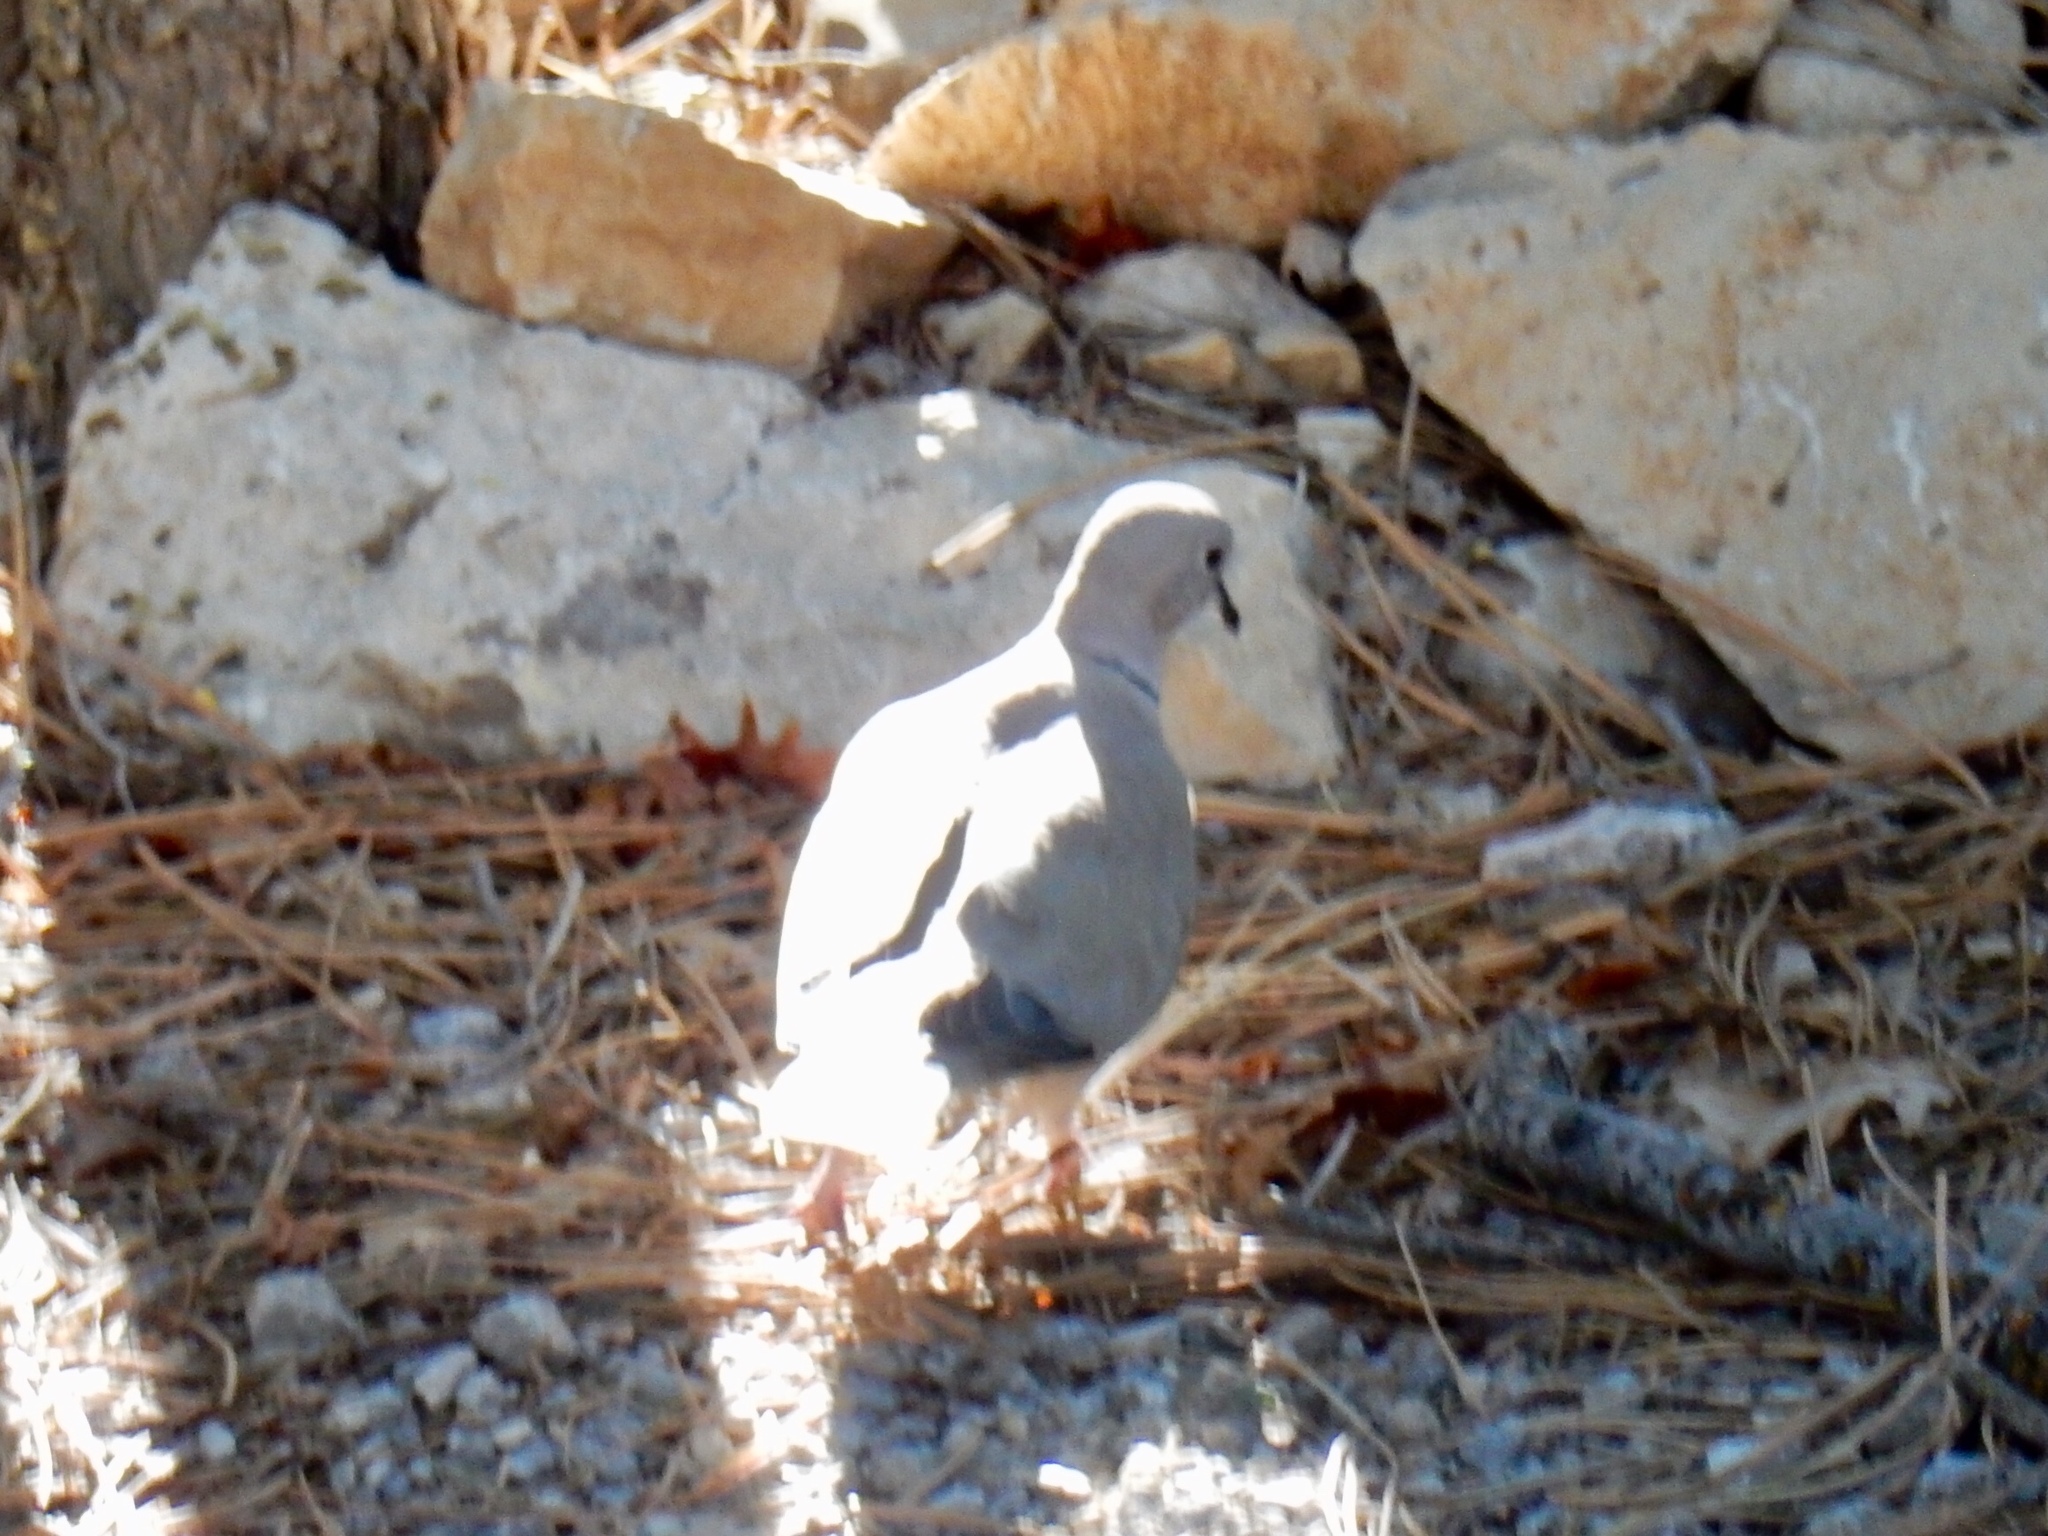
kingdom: Animalia
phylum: Chordata
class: Aves
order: Columbiformes
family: Columbidae
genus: Streptopelia
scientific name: Streptopelia decaocto
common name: Eurasian collared dove
